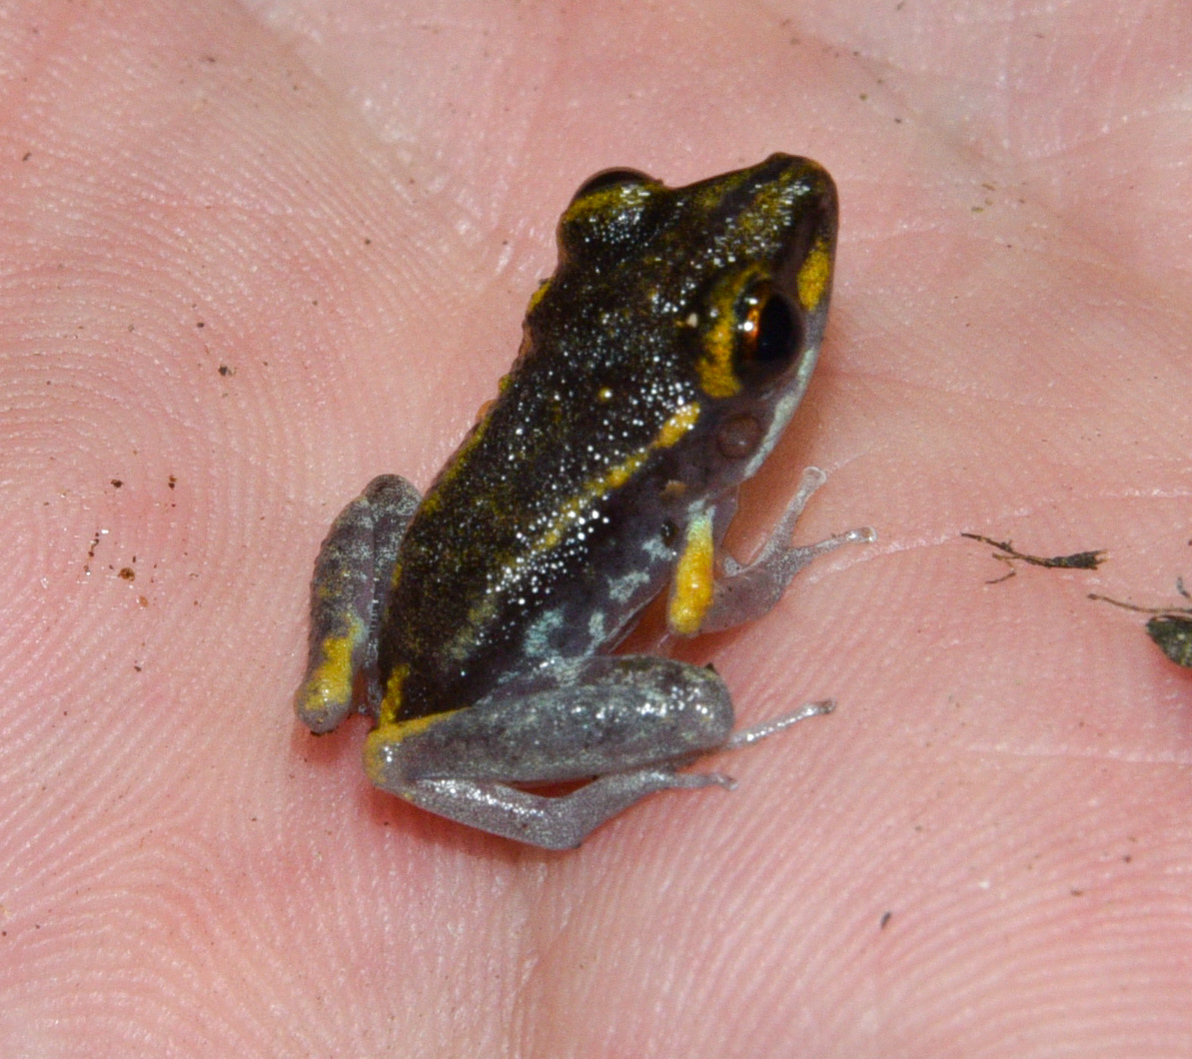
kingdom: Animalia
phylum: Chordata
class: Amphibia
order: Anura
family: Craugastoridae
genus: Pristimantis
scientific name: Pristimantis gaigei
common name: Fort randolph robber frog
